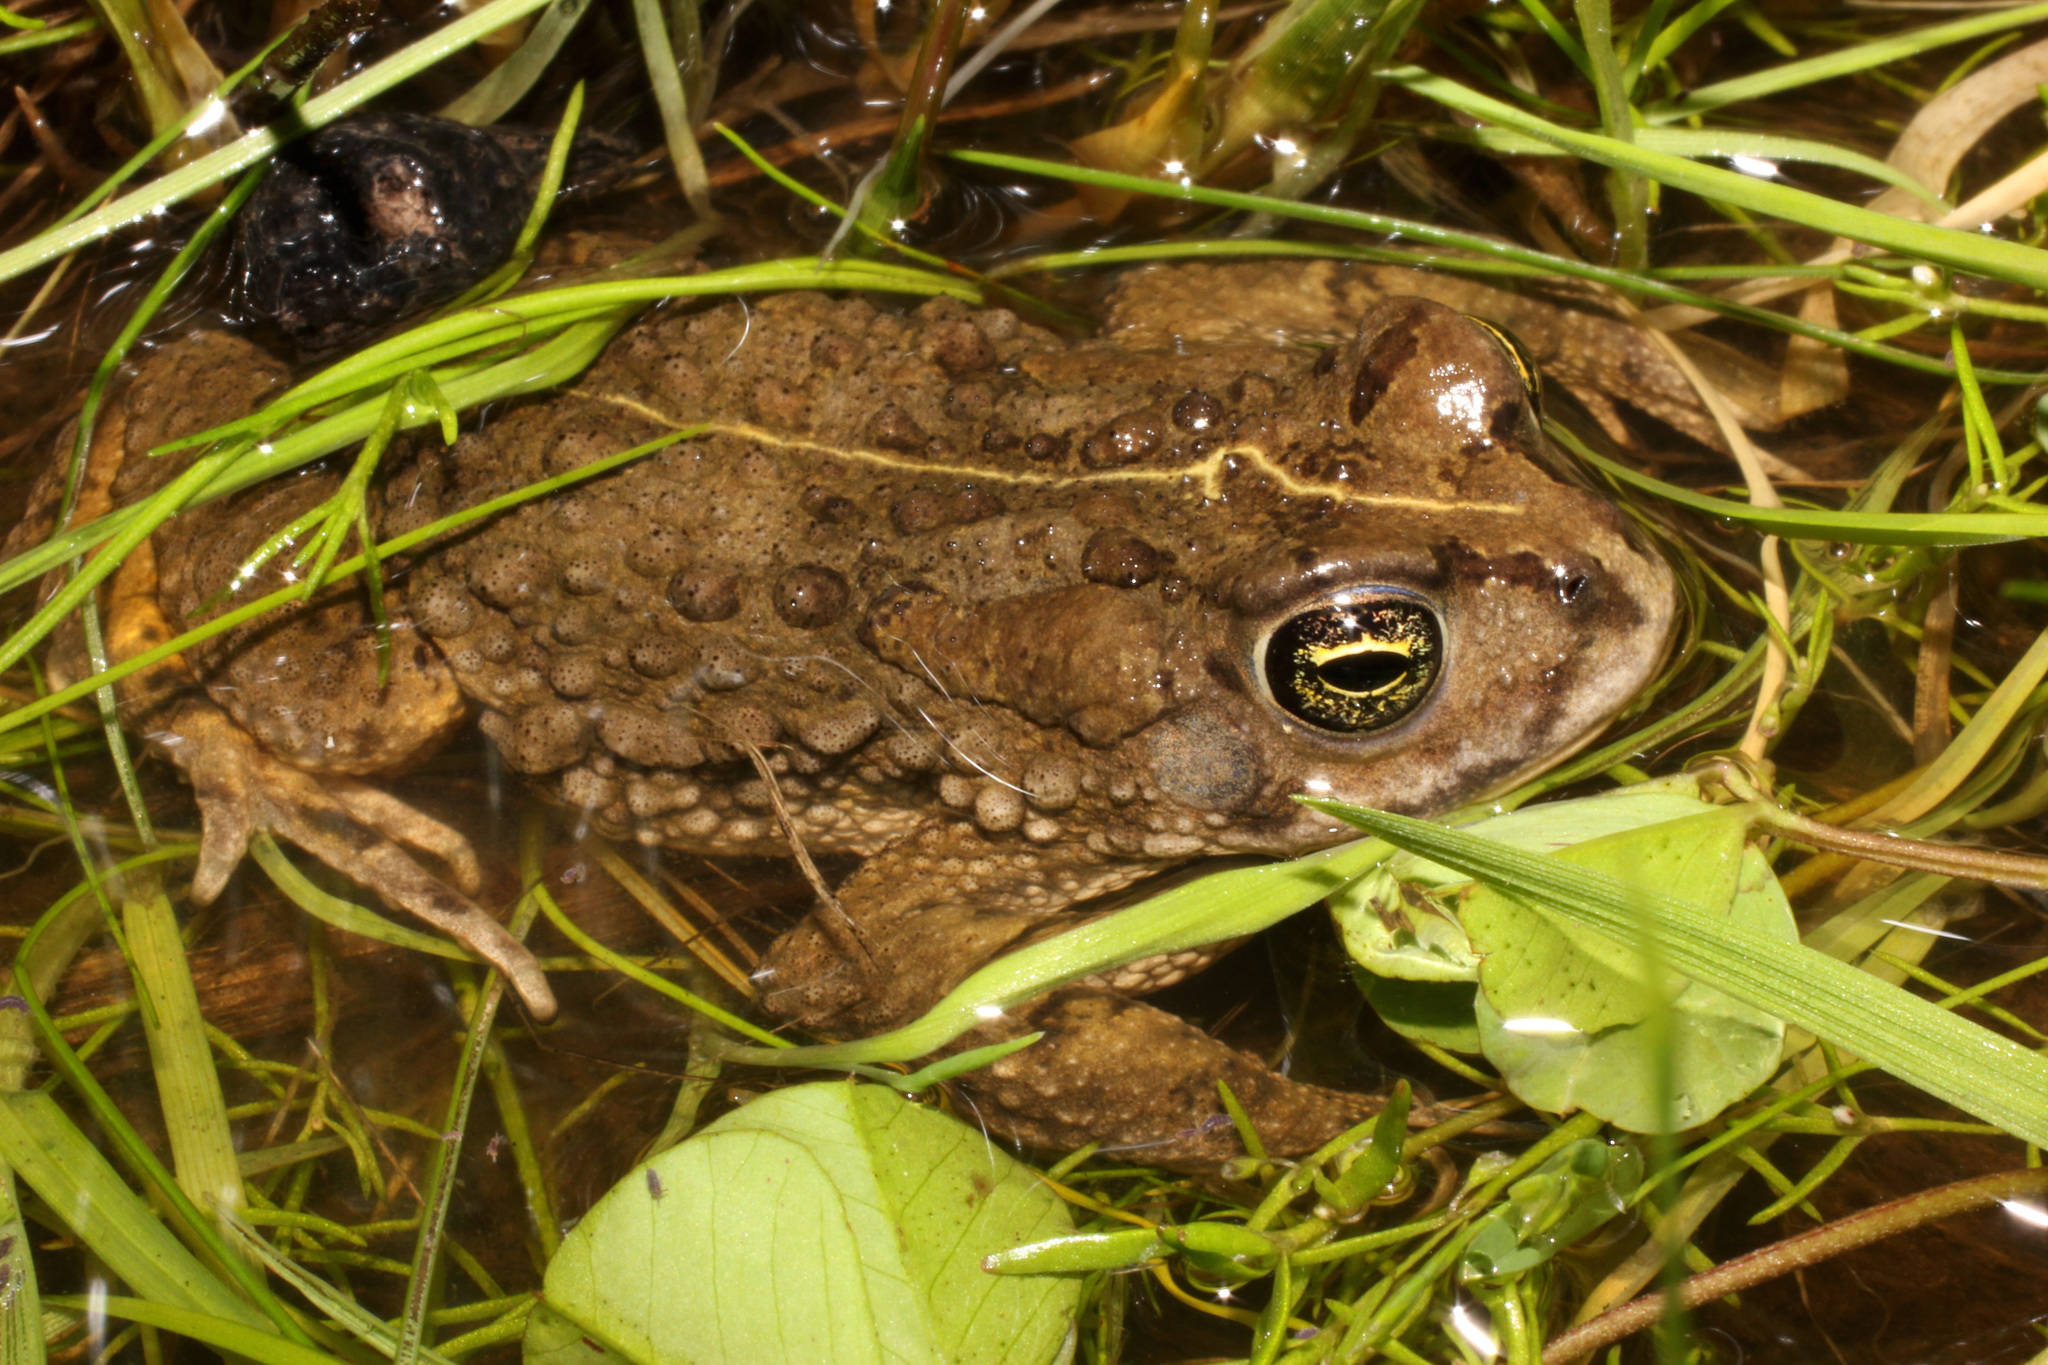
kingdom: Animalia
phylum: Chordata
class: Amphibia
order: Anura
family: Bufonidae
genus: Vandijkophrynus
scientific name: Vandijkophrynus angusticeps
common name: Sand toad
